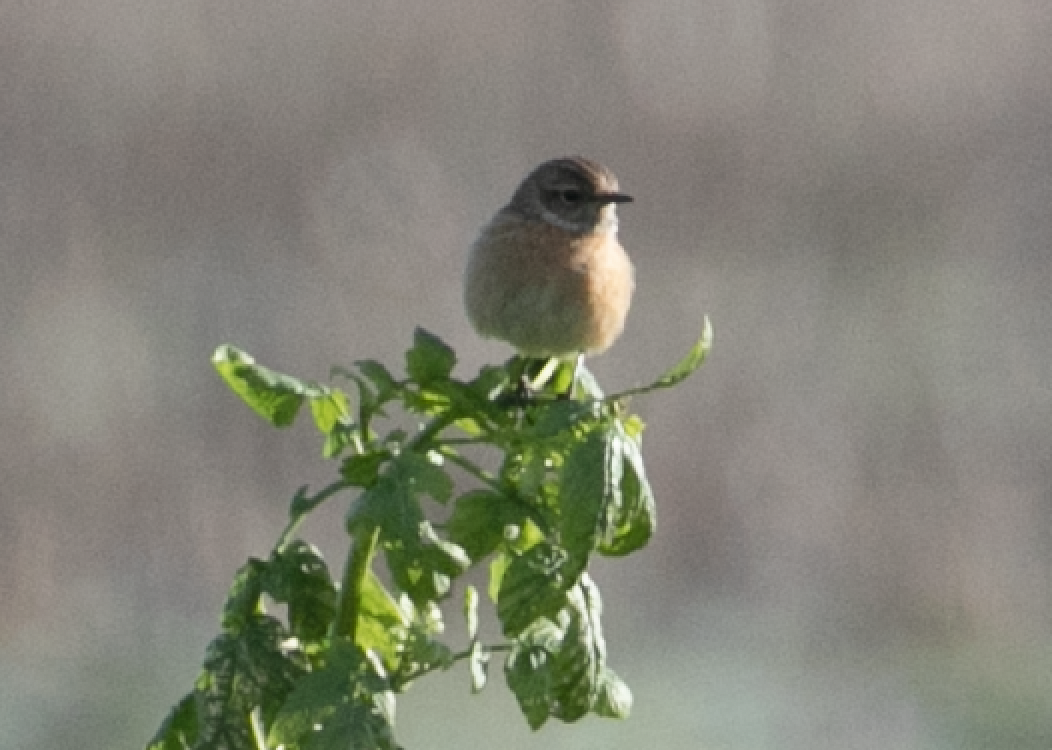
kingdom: Animalia
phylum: Chordata
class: Aves
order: Passeriformes
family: Muscicapidae
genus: Saxicola
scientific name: Saxicola rubicola
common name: European stonechat
